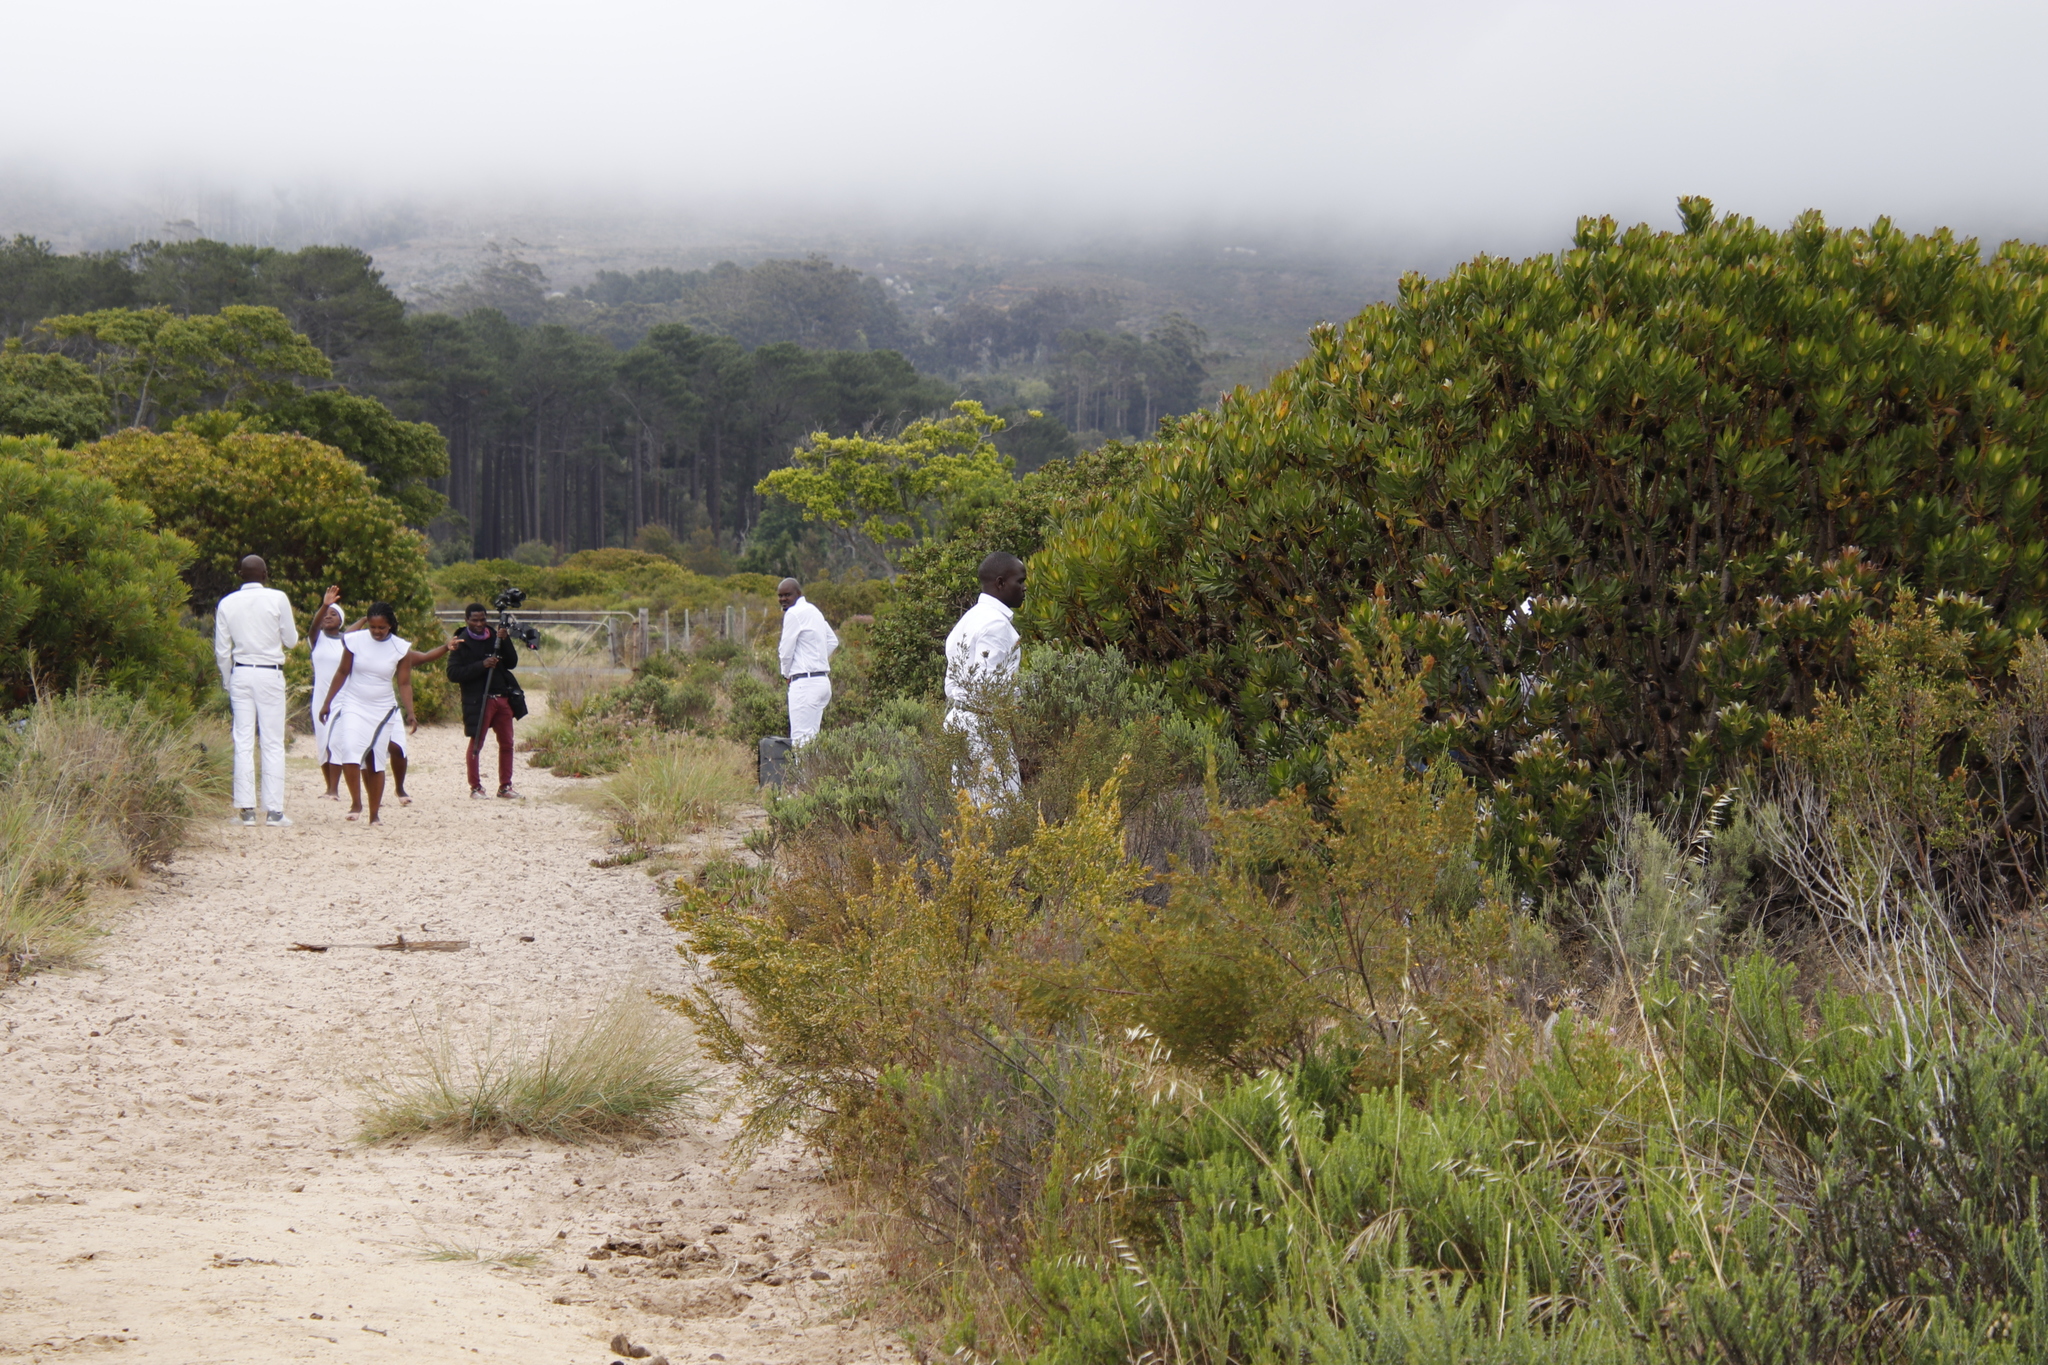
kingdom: Plantae
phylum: Tracheophyta
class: Magnoliopsida
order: Proteales
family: Proteaceae
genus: Leucadendron
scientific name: Leucadendron laureolum
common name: Golden sunshinebush
